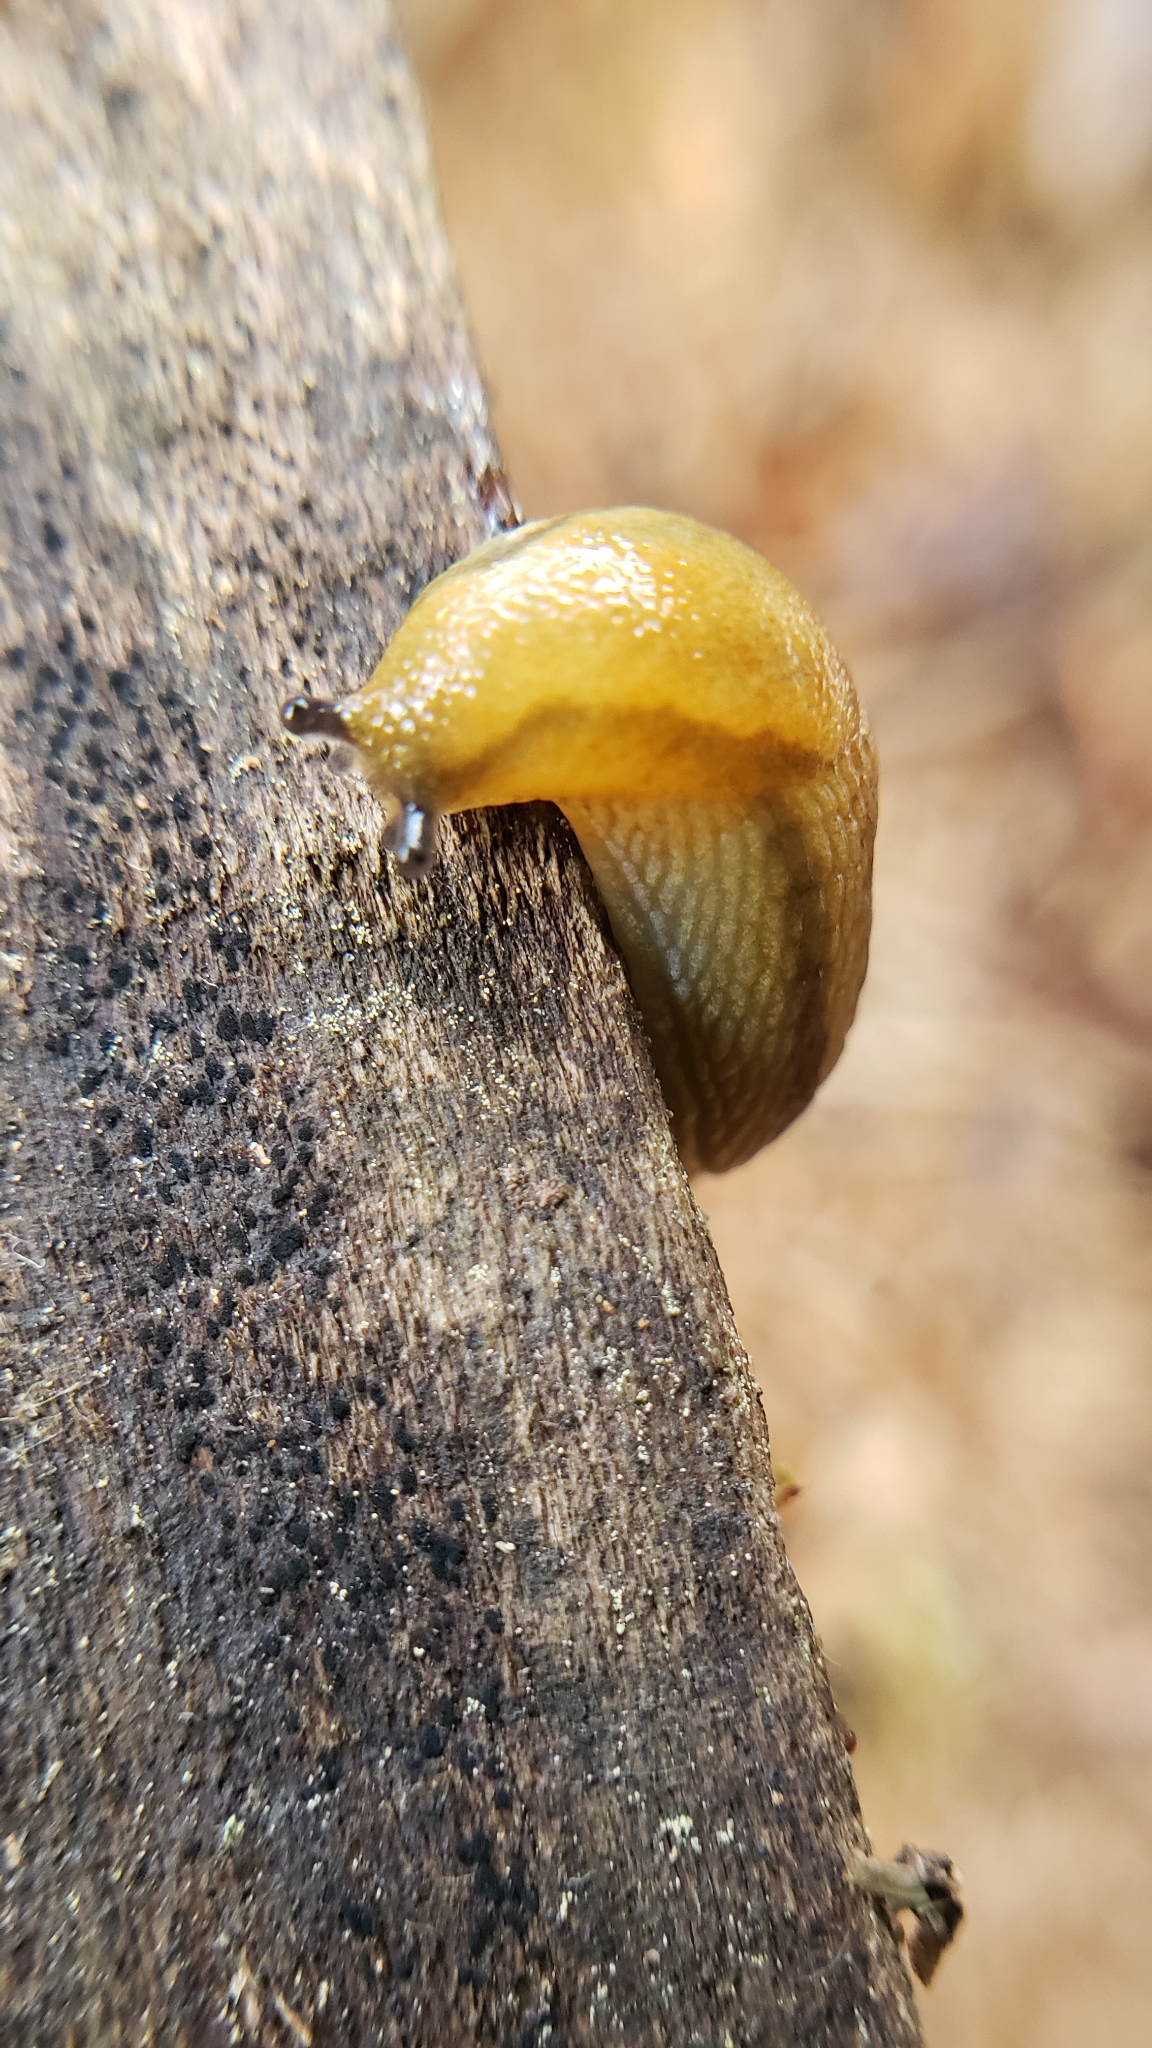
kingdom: Animalia
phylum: Mollusca
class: Gastropoda
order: Stylommatophora
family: Arionidae
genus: Arion
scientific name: Arion subfuscus
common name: Dusky arion
